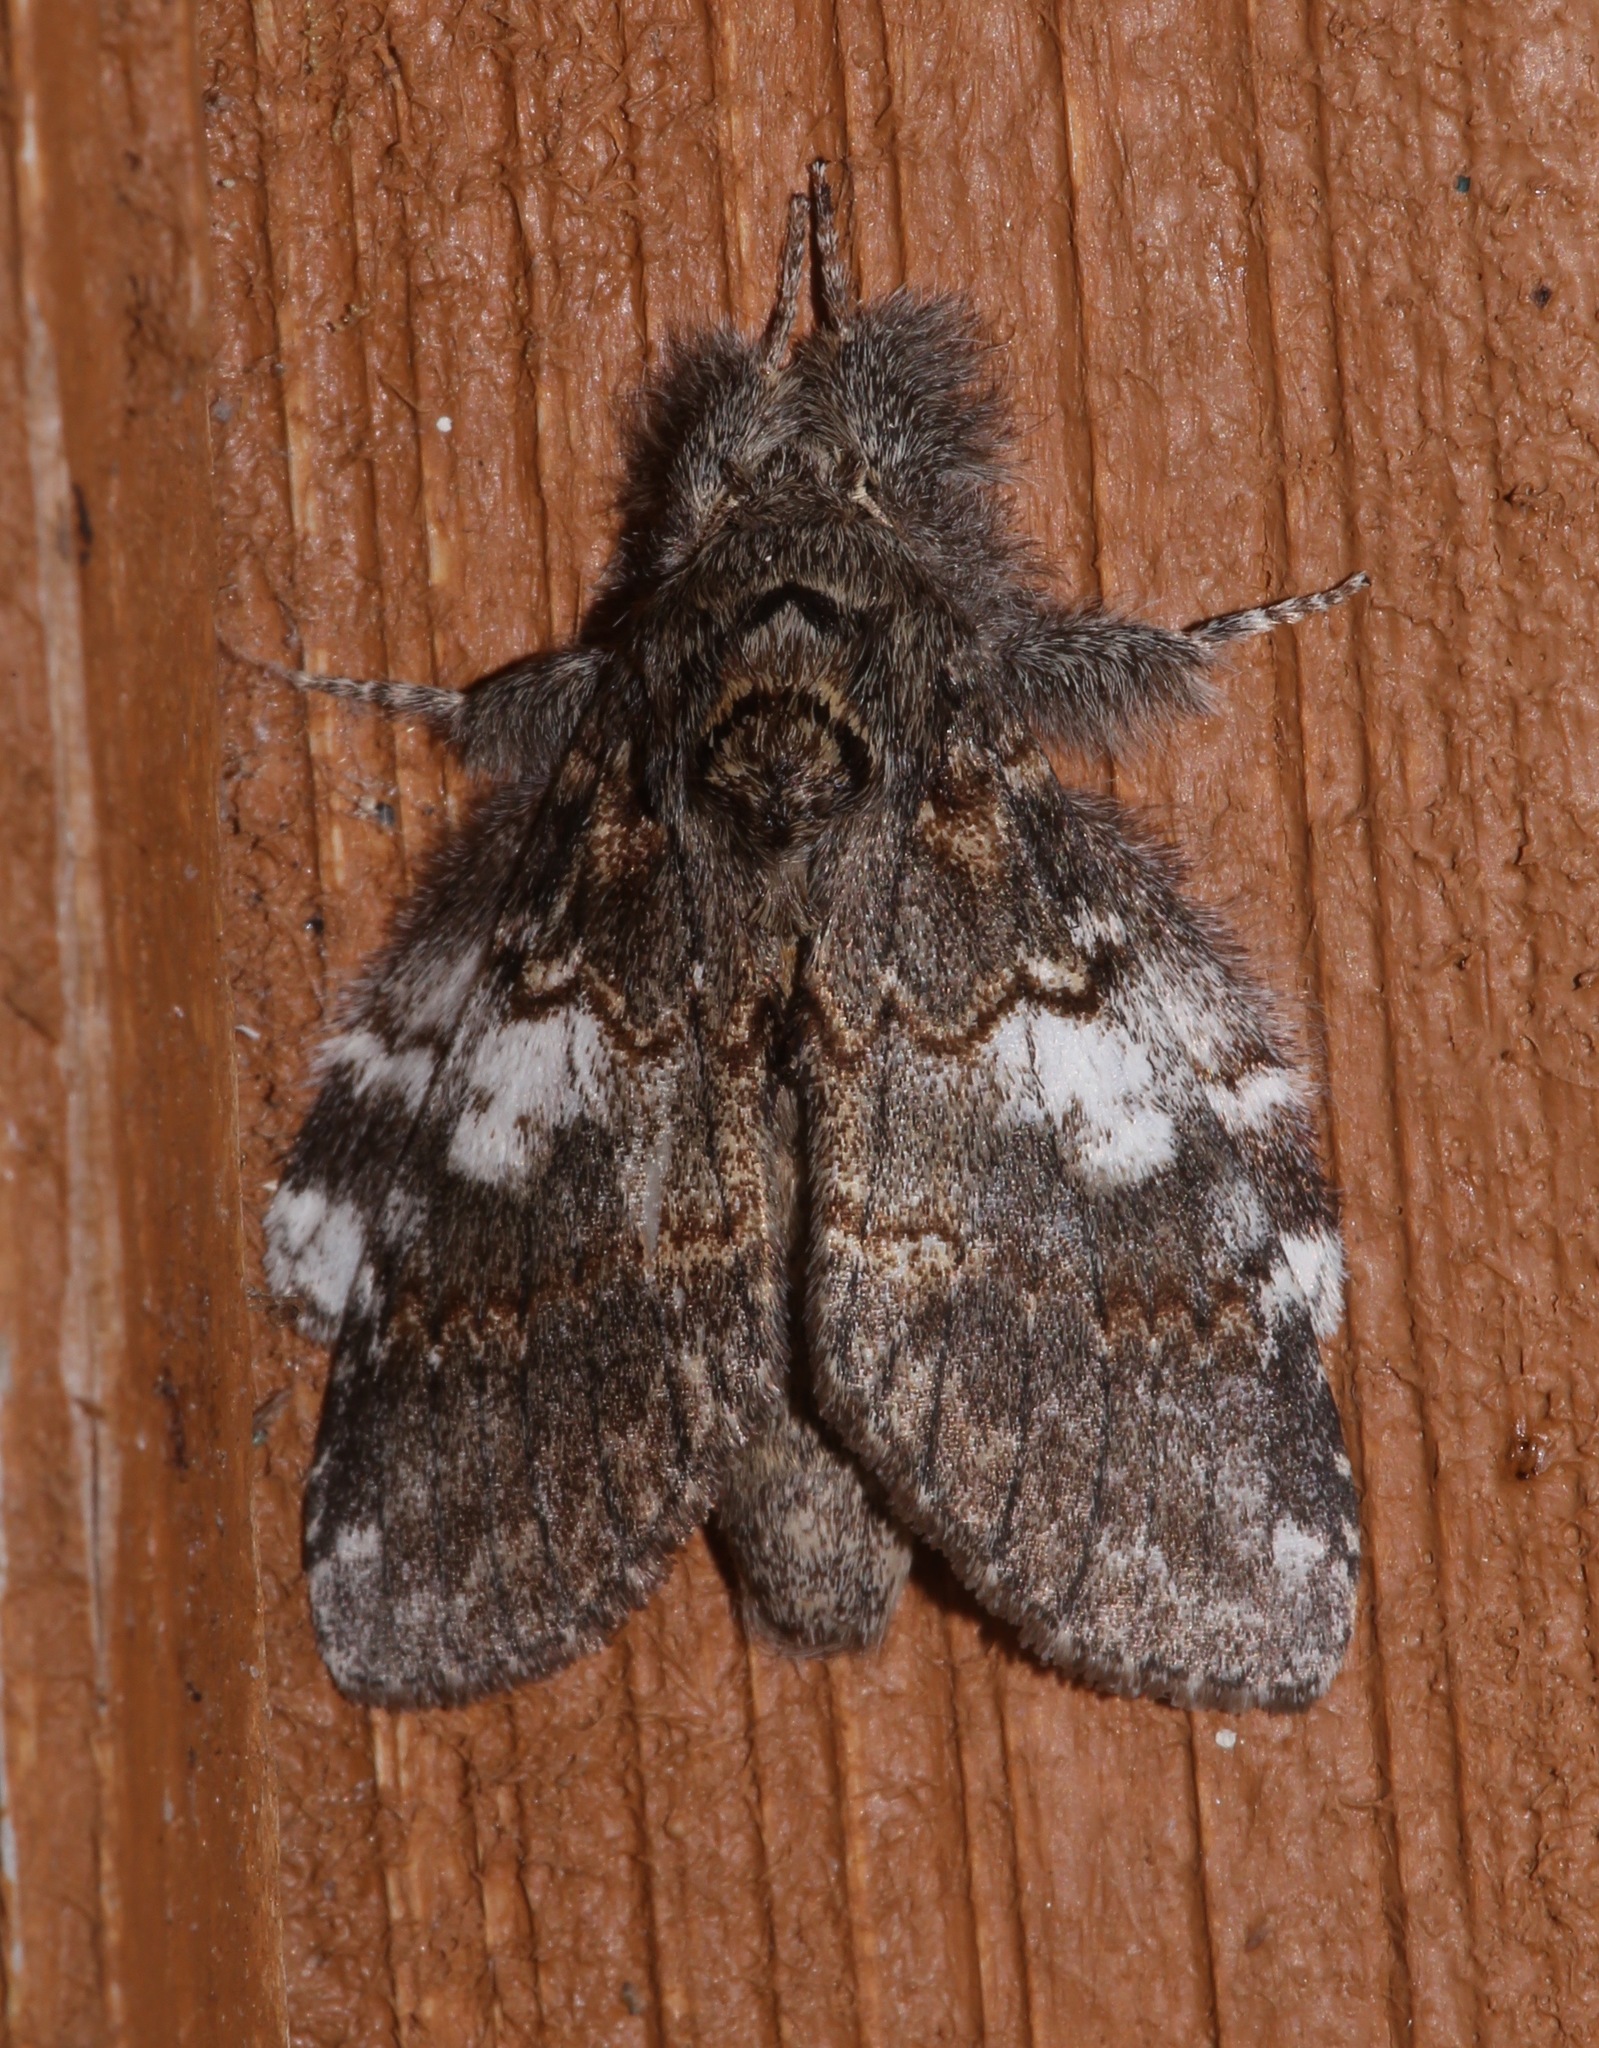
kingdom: Animalia
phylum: Arthropoda
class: Insecta
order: Lepidoptera
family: Notodontidae
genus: Peridea
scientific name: Peridea angulosa
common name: Angulose prominent
